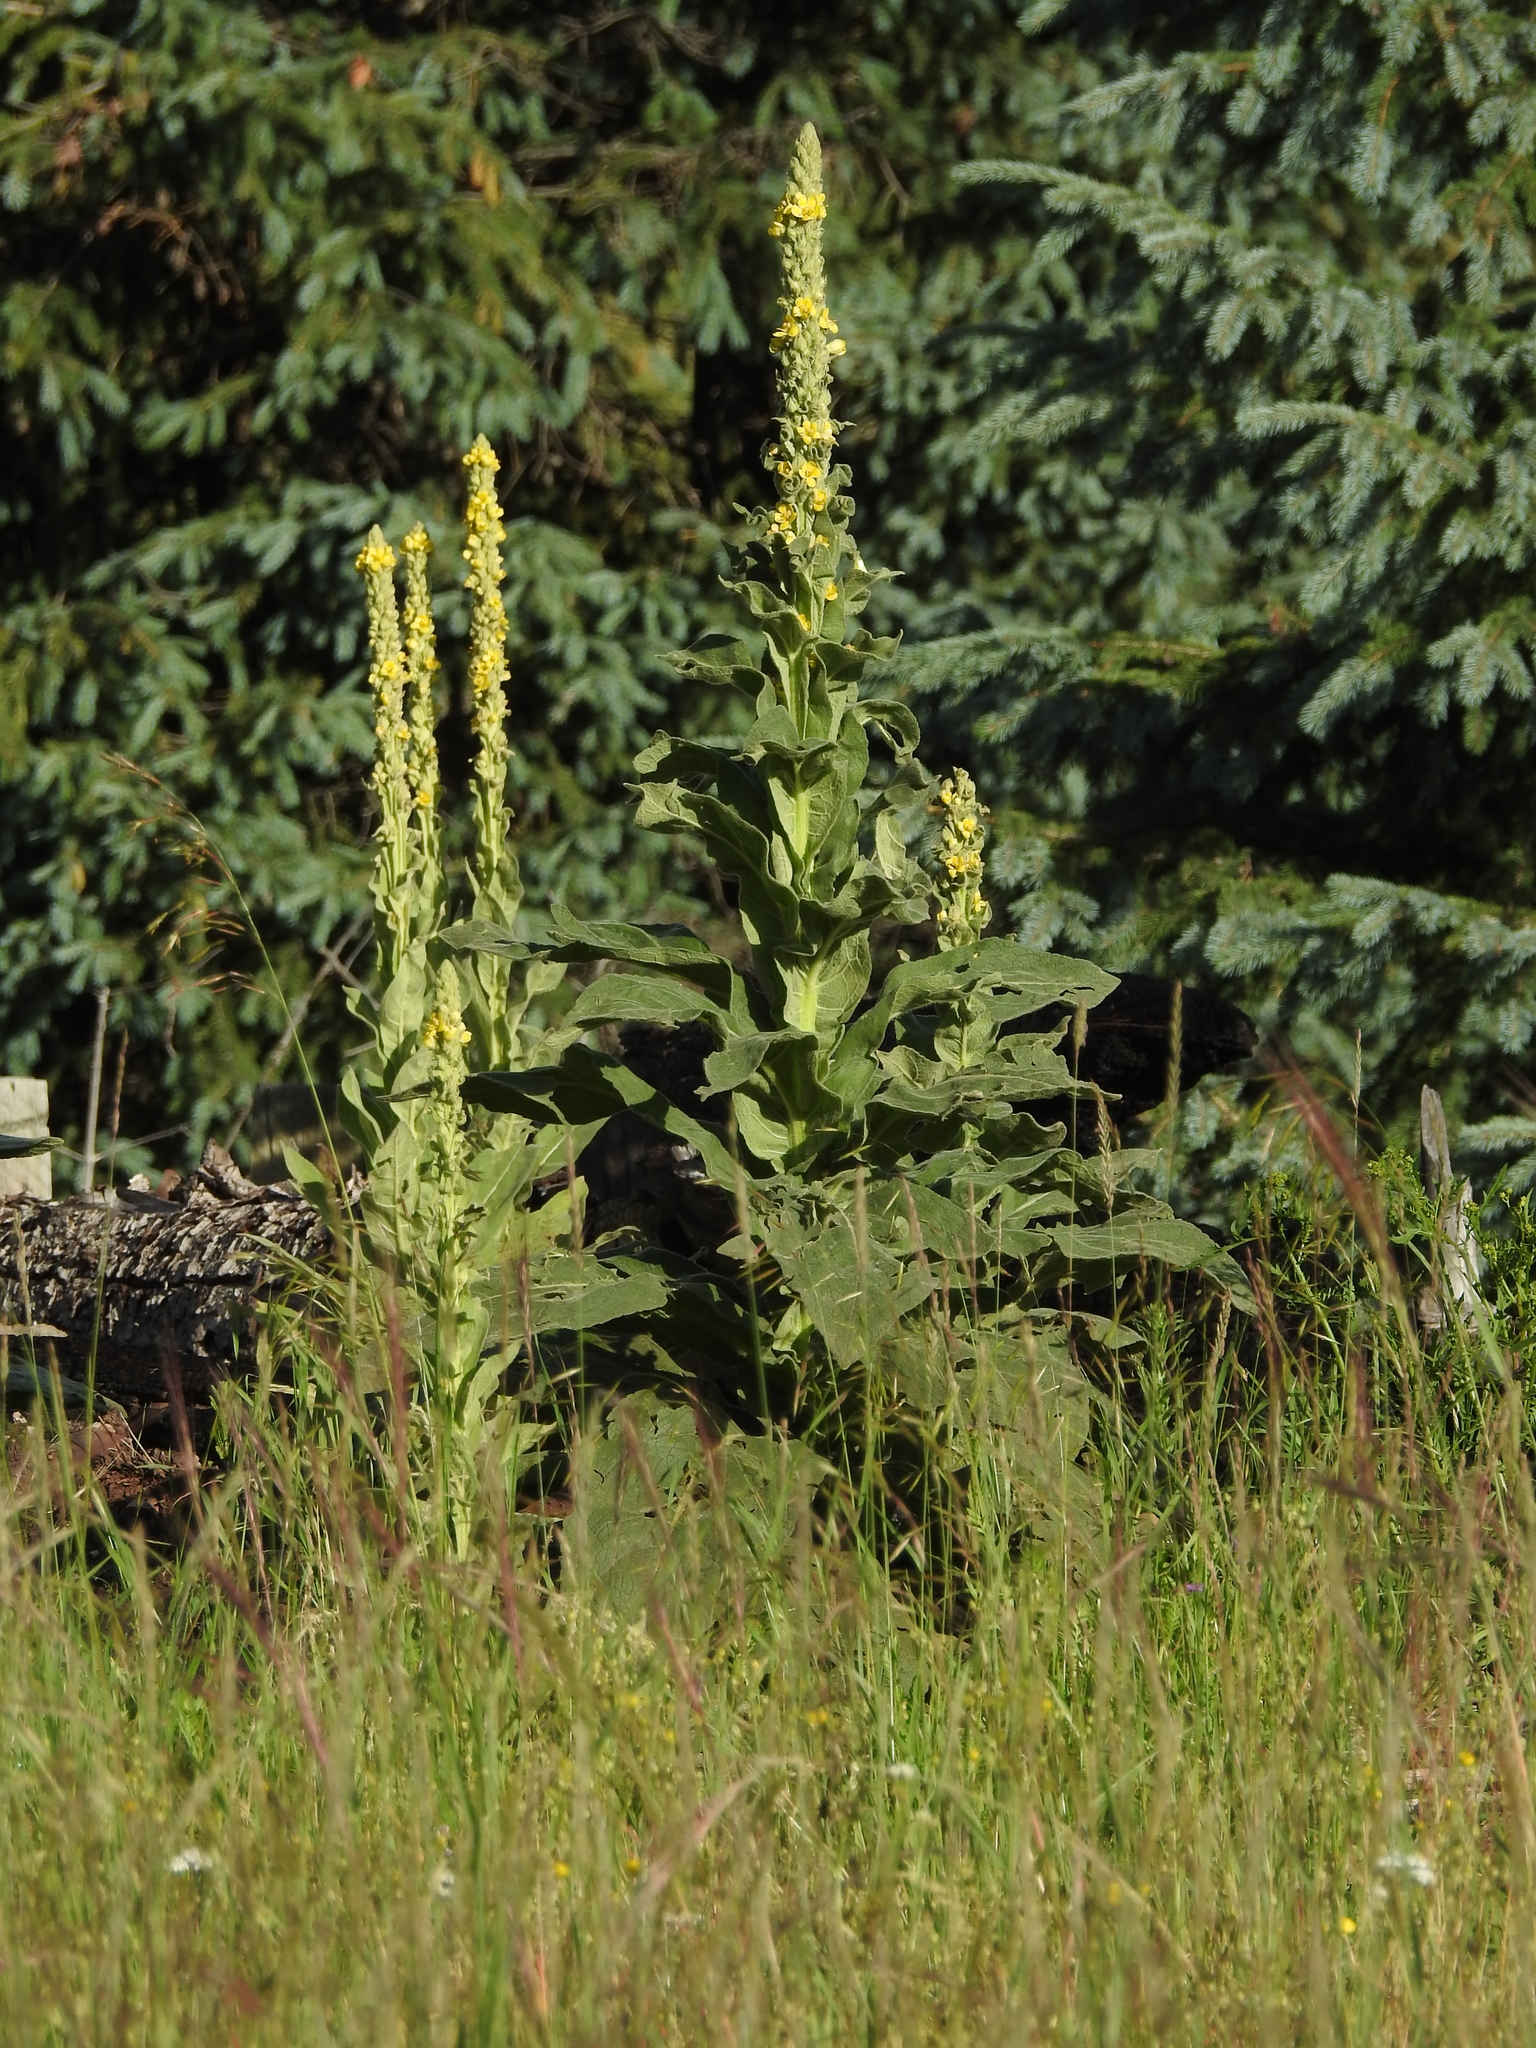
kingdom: Plantae
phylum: Tracheophyta
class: Magnoliopsida
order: Lamiales
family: Scrophulariaceae
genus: Verbascum
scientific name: Verbascum thapsus
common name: Common mullein
